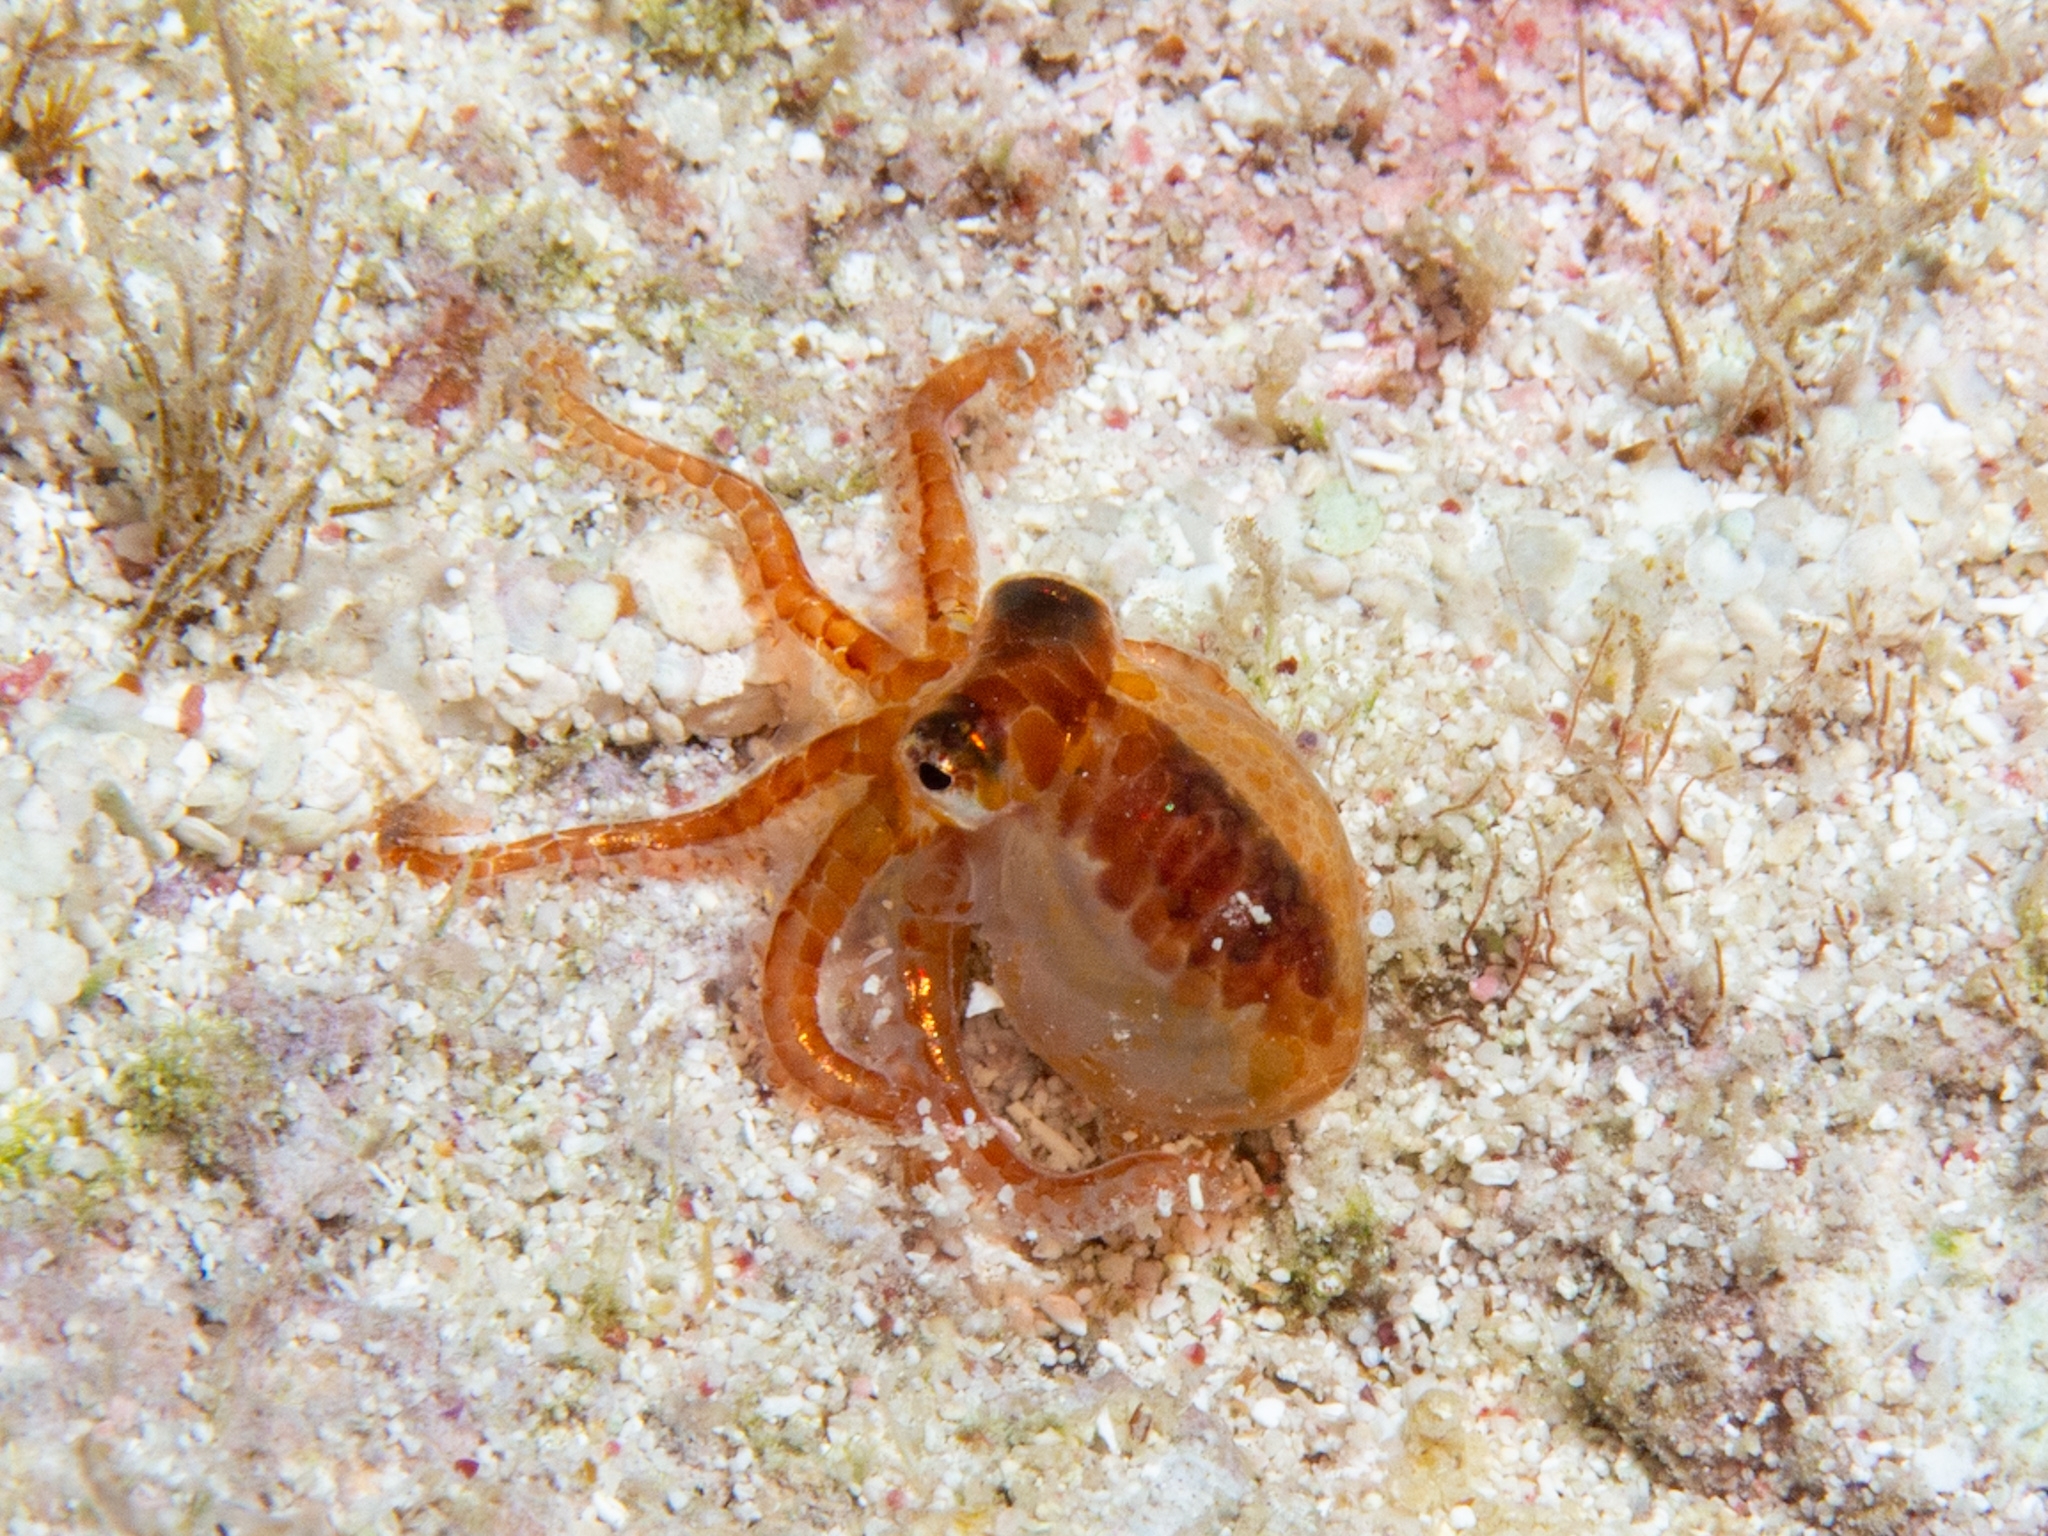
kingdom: Animalia
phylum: Mollusca
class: Cephalopoda
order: Octopoda
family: Octopodidae
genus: Octopus
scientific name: Octopus joubini
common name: Joubin's octopus
